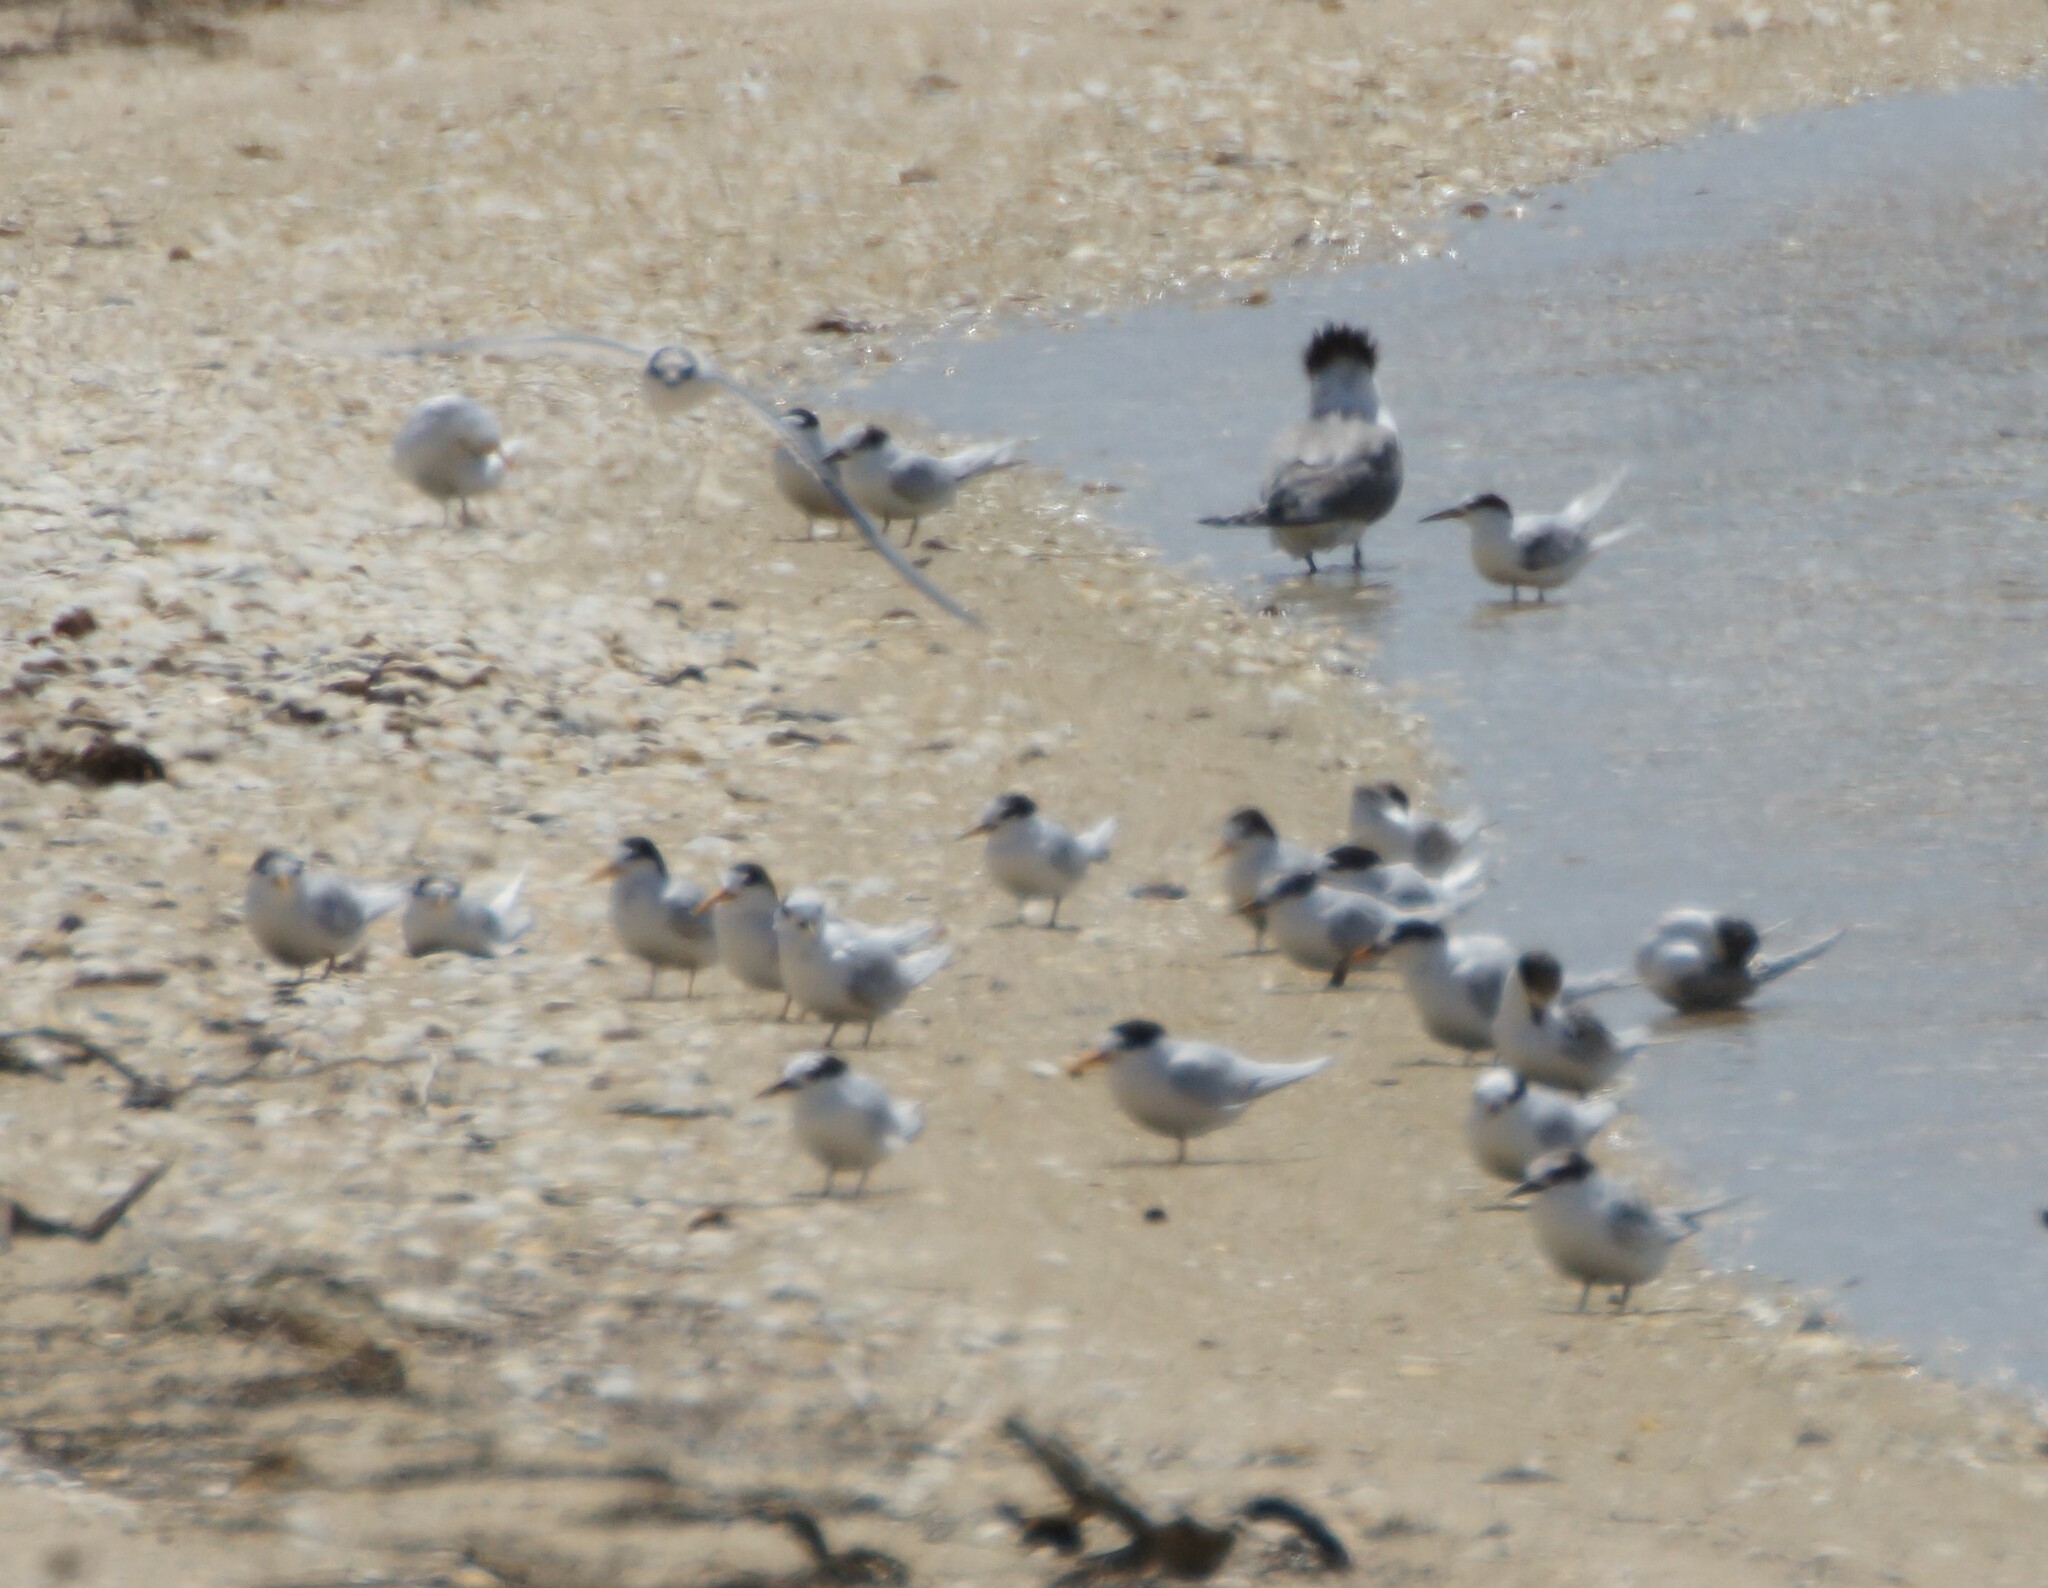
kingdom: Animalia
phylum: Chordata
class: Aves
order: Charadriiformes
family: Laridae
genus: Sternula
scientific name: Sternula nereis
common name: Fairy tern
